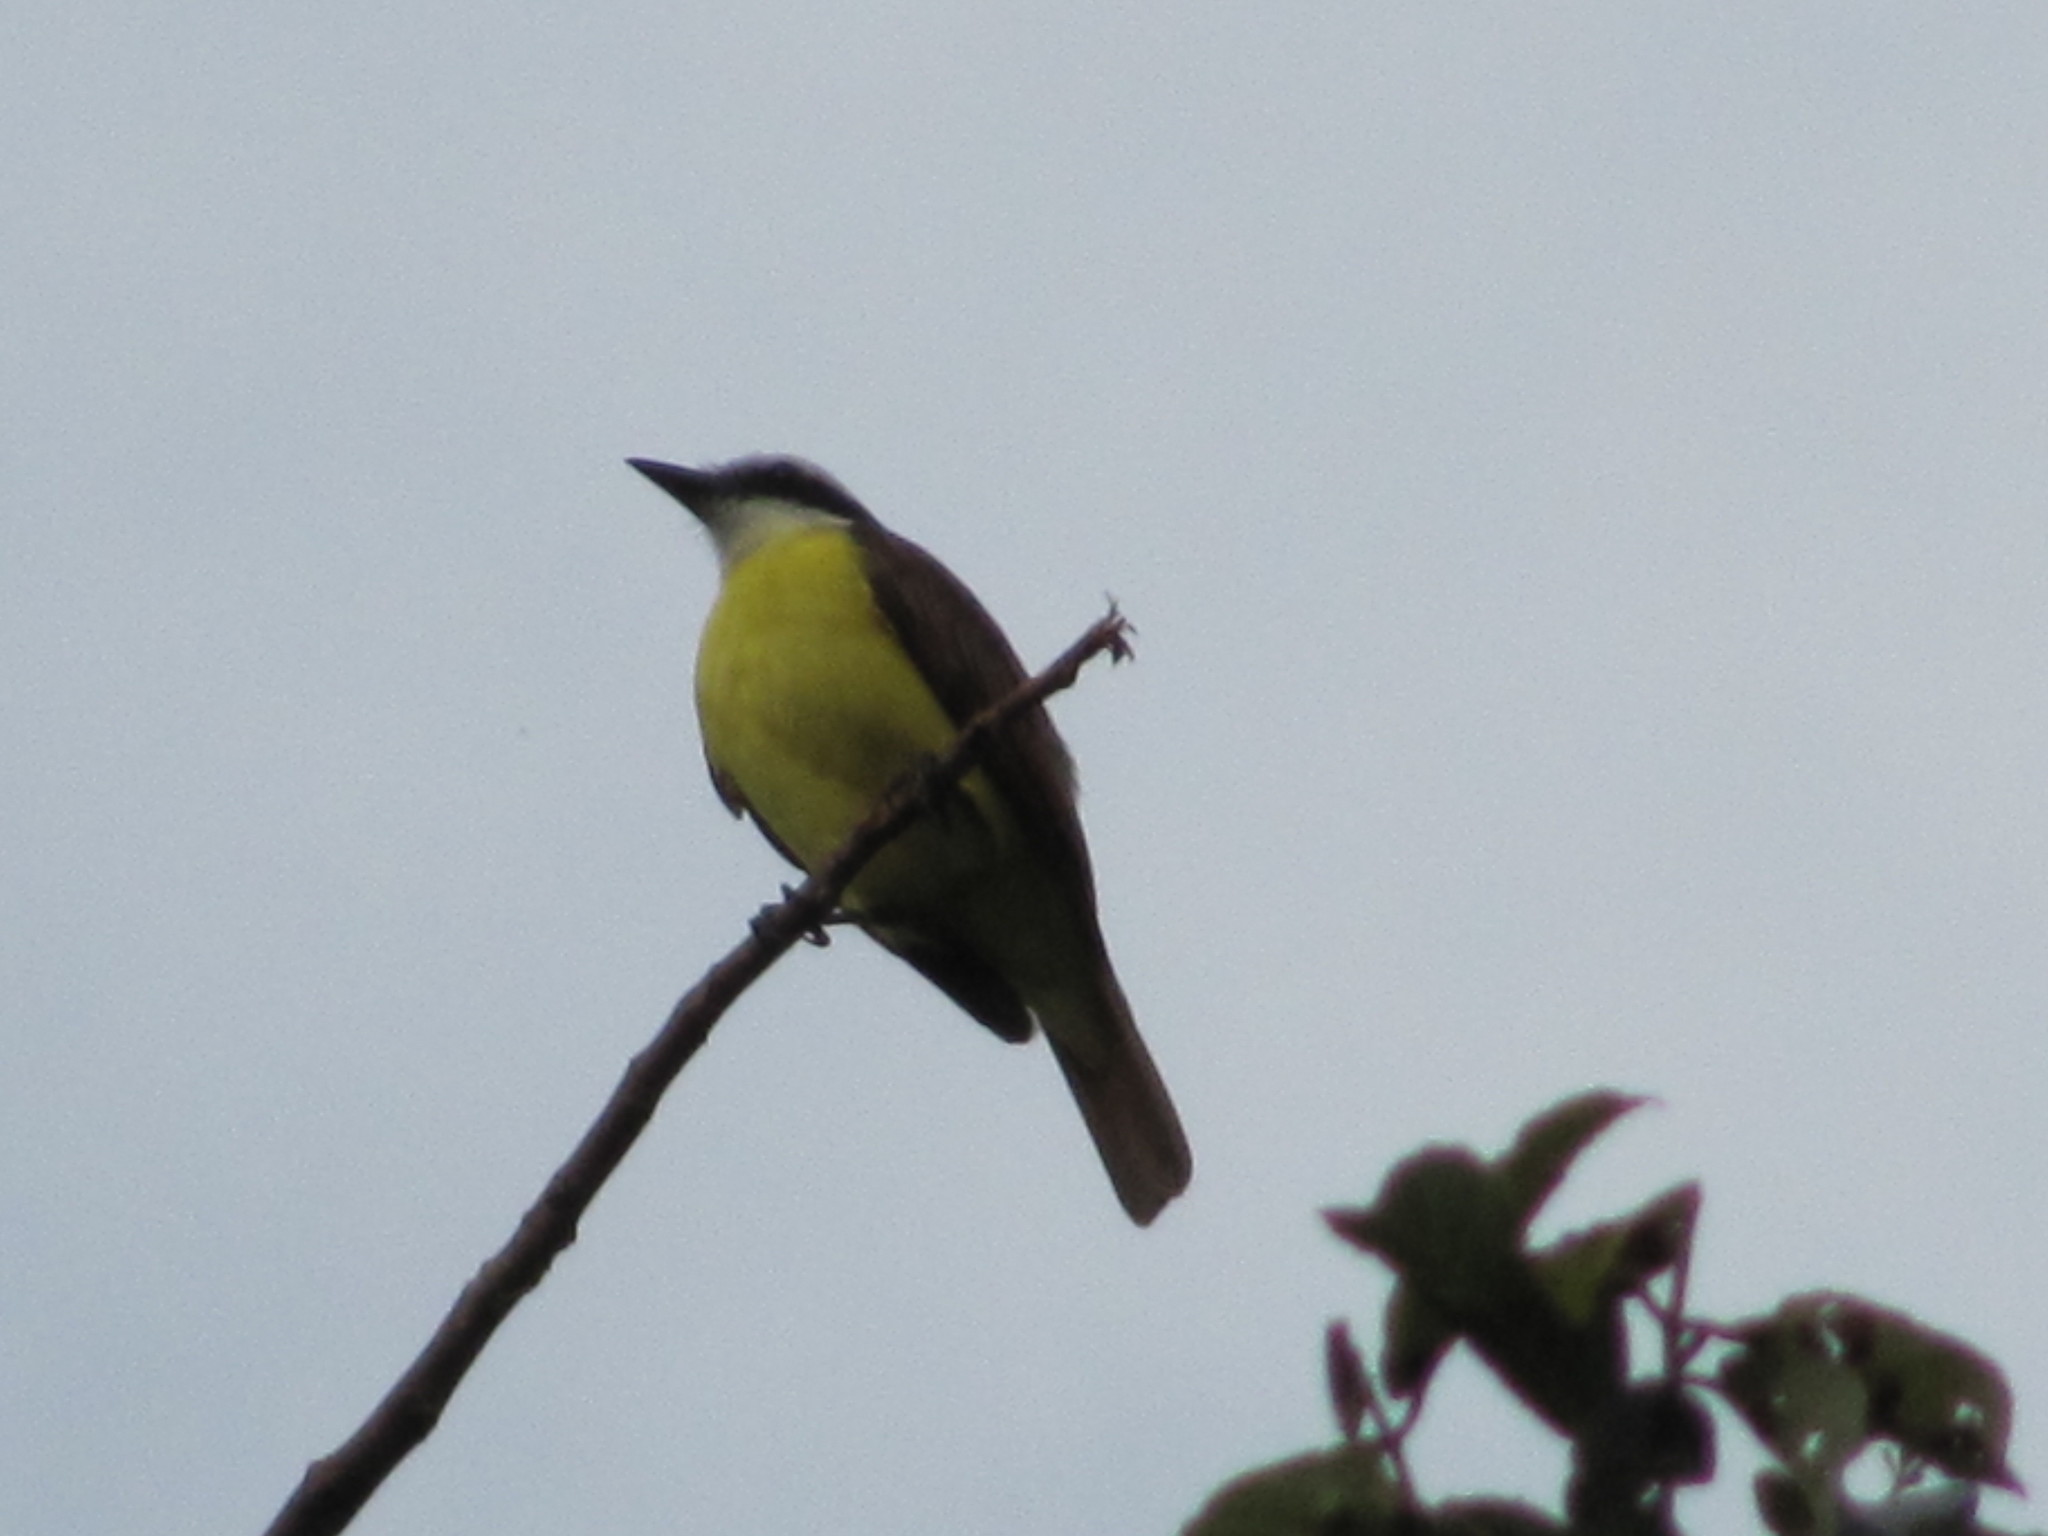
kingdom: Animalia
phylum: Chordata
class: Aves
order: Passeriformes
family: Tyrannidae
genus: Pitangus
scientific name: Pitangus sulphuratus
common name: Great kiskadee
